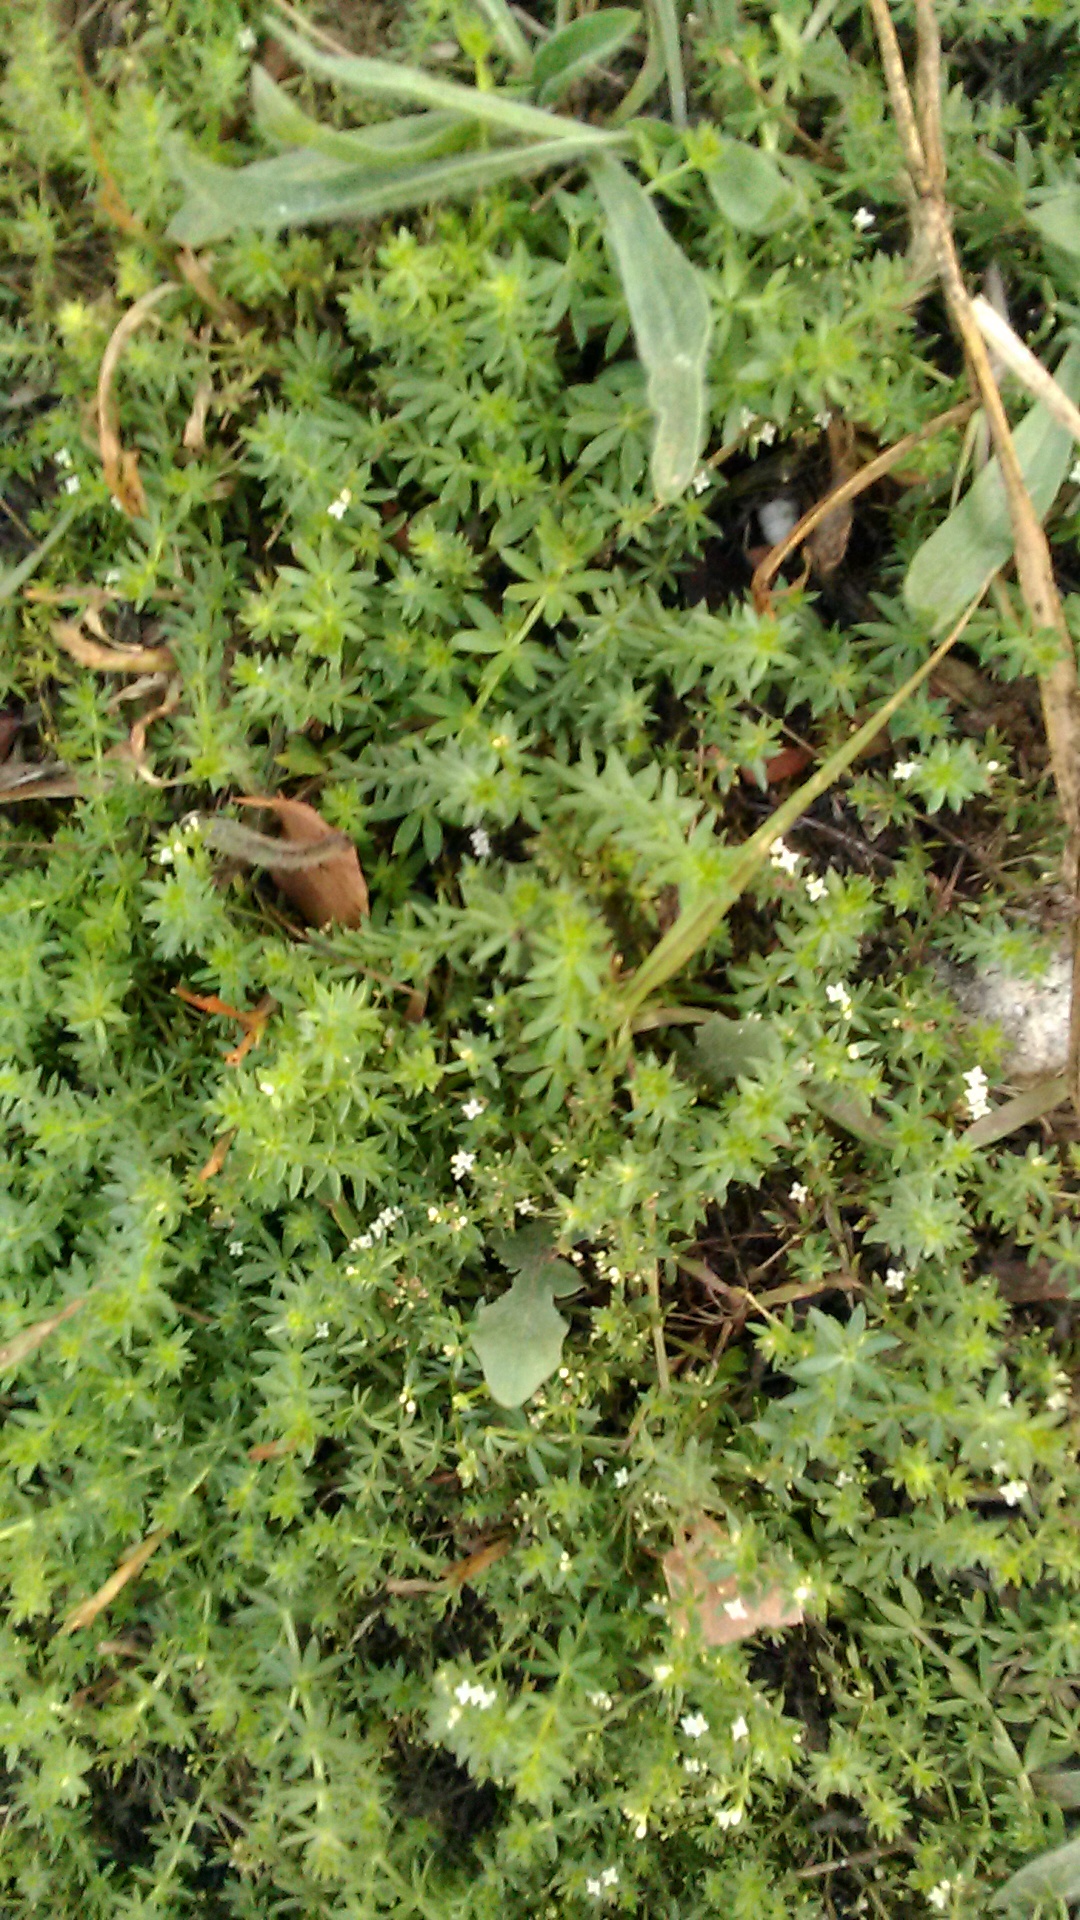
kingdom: Plantae
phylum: Tracheophyta
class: Magnoliopsida
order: Gentianales
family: Rubiaceae
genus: Galium
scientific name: Galium humifusum
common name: Spreading bedstraw
